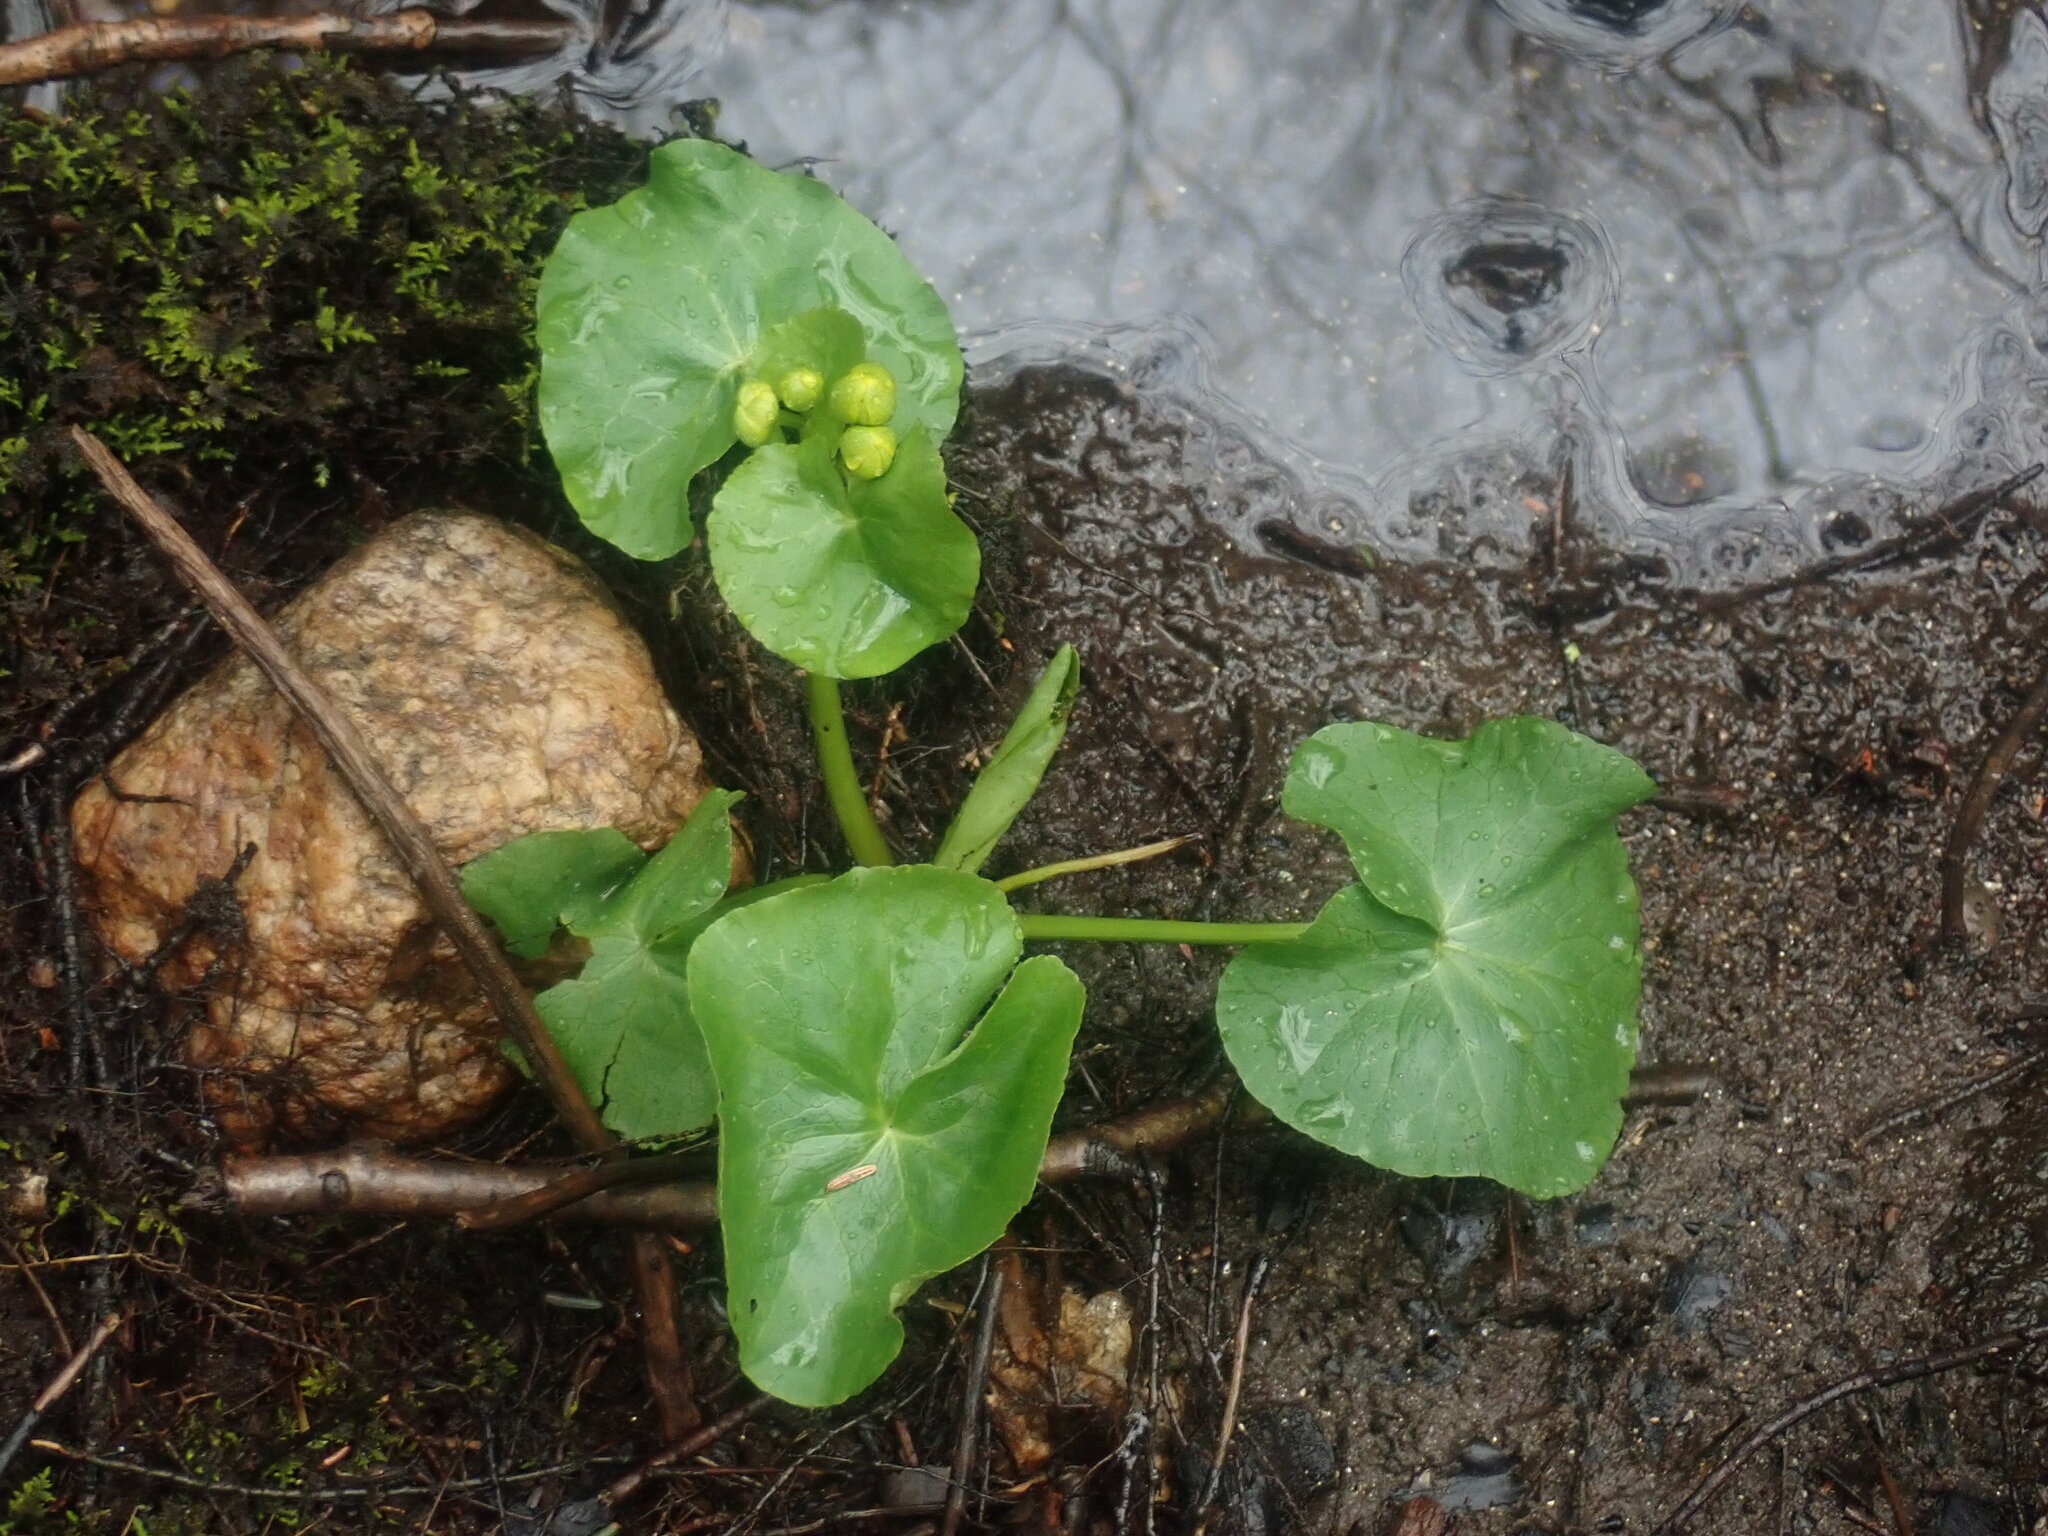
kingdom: Plantae
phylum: Tracheophyta
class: Magnoliopsida
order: Ranunculales
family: Ranunculaceae
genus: Caltha
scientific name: Caltha palustris
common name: Marsh marigold
